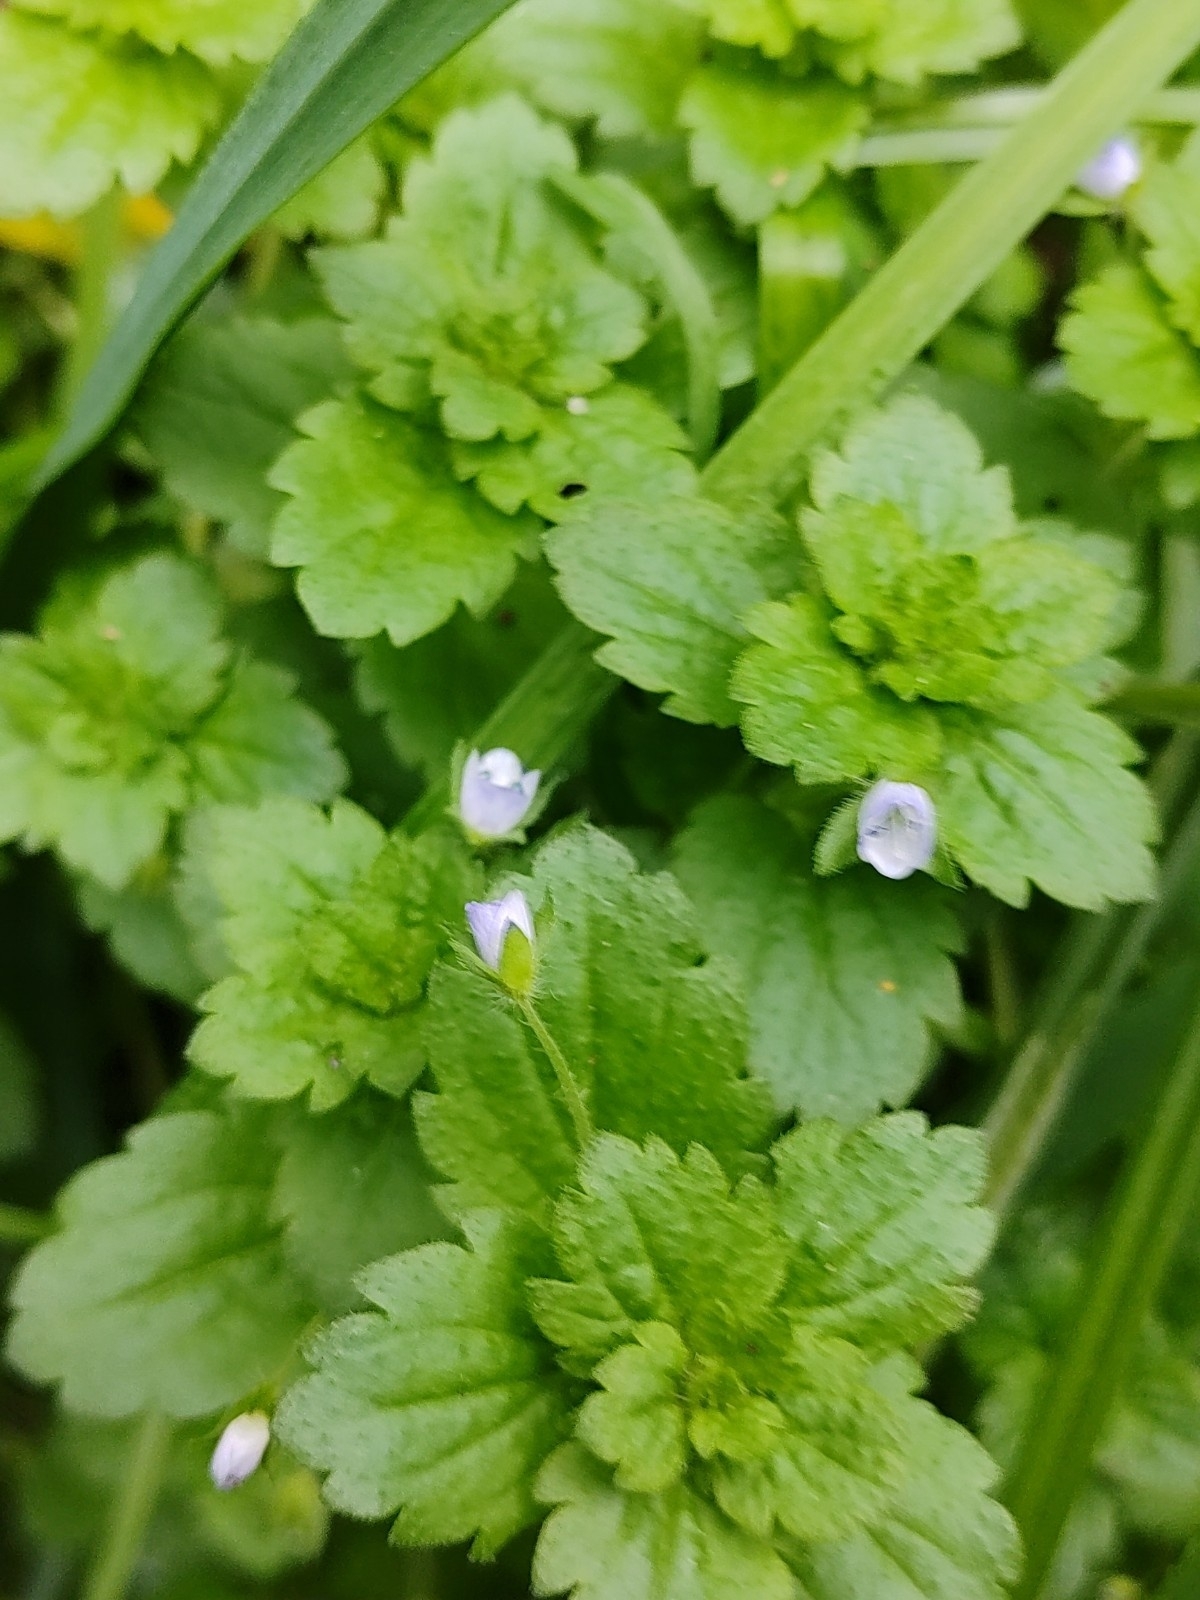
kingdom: Plantae
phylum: Tracheophyta
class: Magnoliopsida
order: Lamiales
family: Plantaginaceae
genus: Veronica
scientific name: Veronica persica
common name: Common field-speedwell
